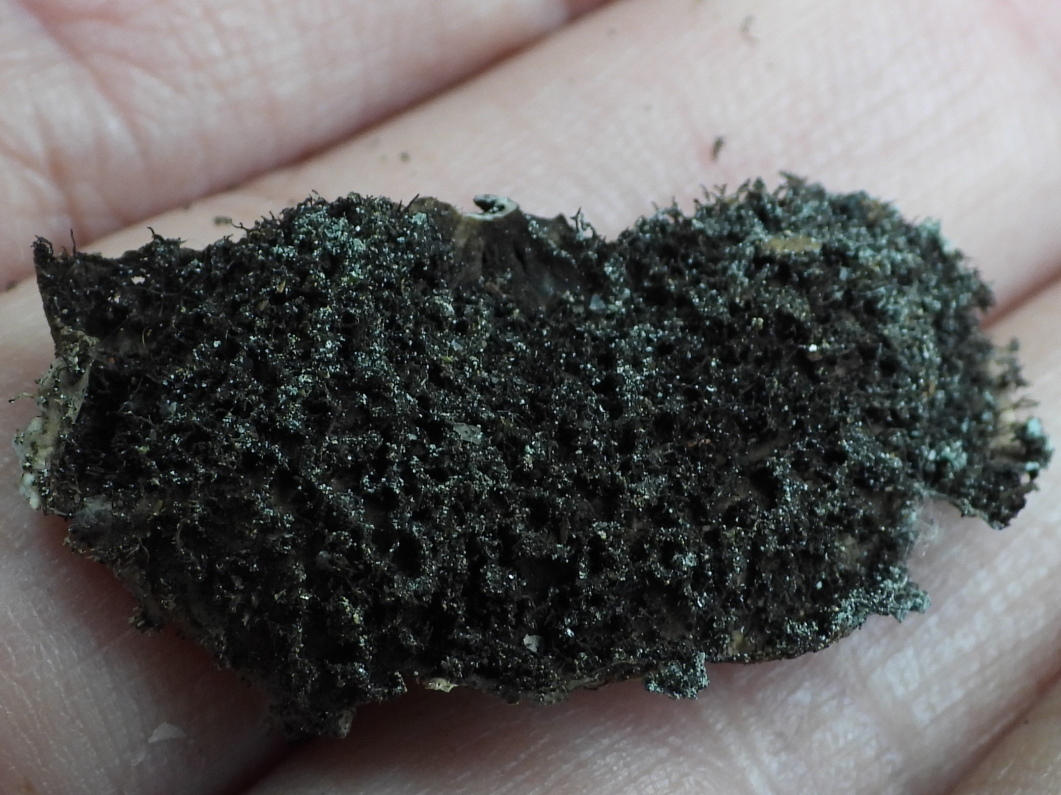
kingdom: Fungi
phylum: Ascomycota
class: Lecanoromycetes
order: Umbilicariales
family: Umbilicariaceae
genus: Umbilicaria
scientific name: Umbilicaria vellea
